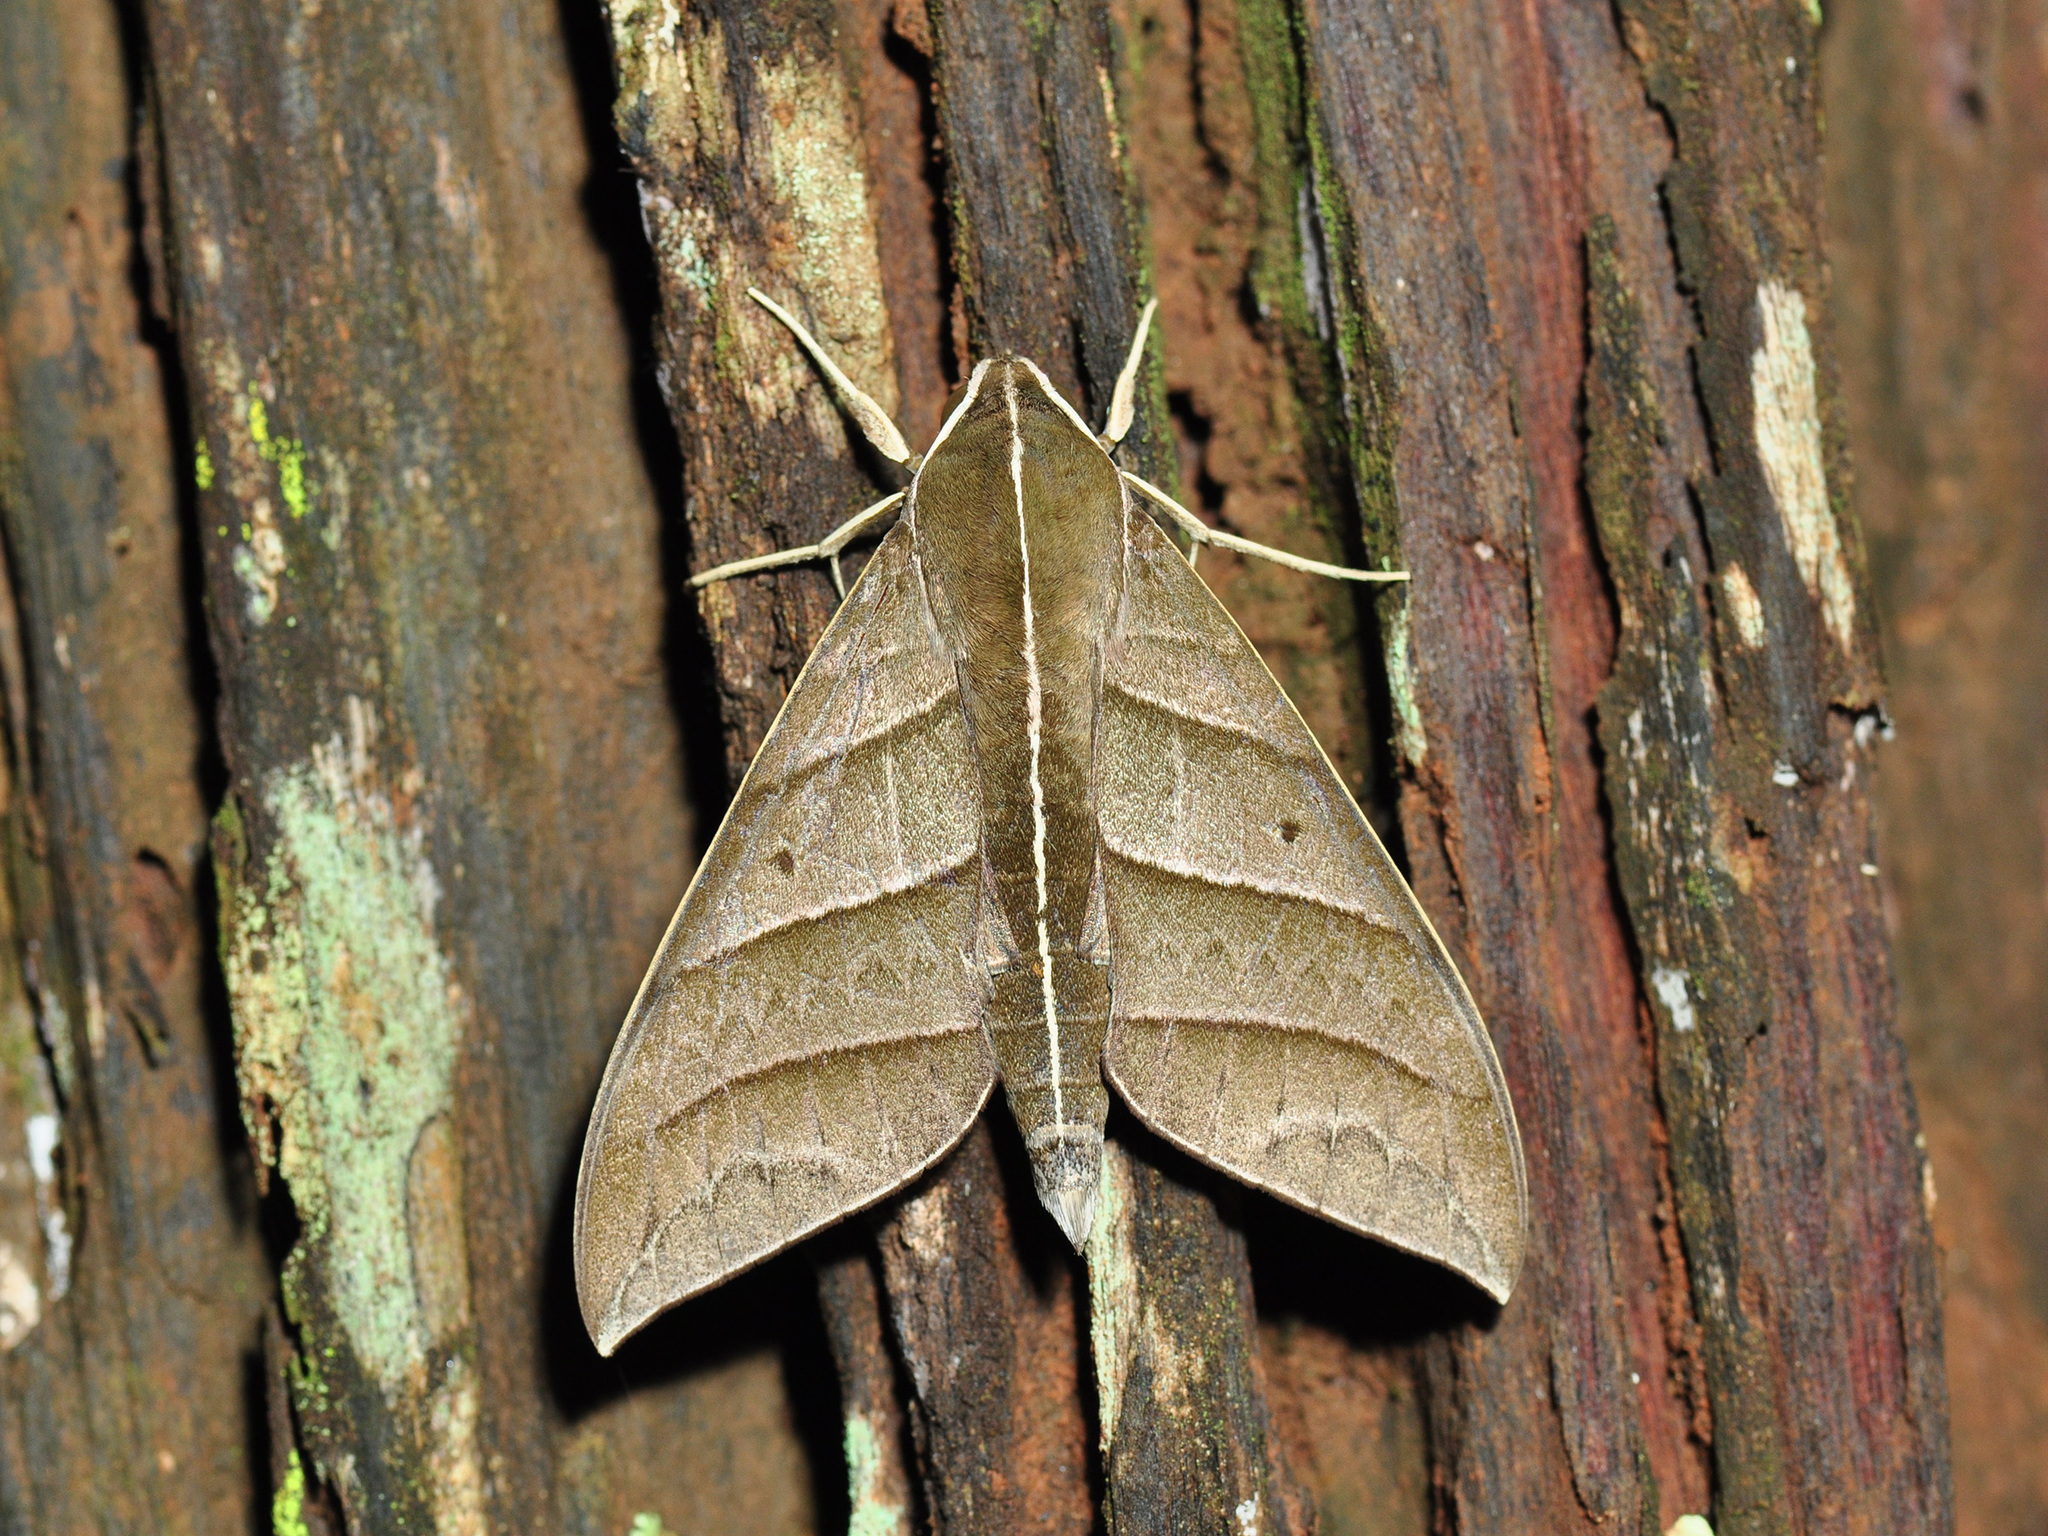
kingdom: Animalia
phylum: Arthropoda
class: Insecta
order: Lepidoptera
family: Sphingidae
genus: Elibia
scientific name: Elibia dolichoides
